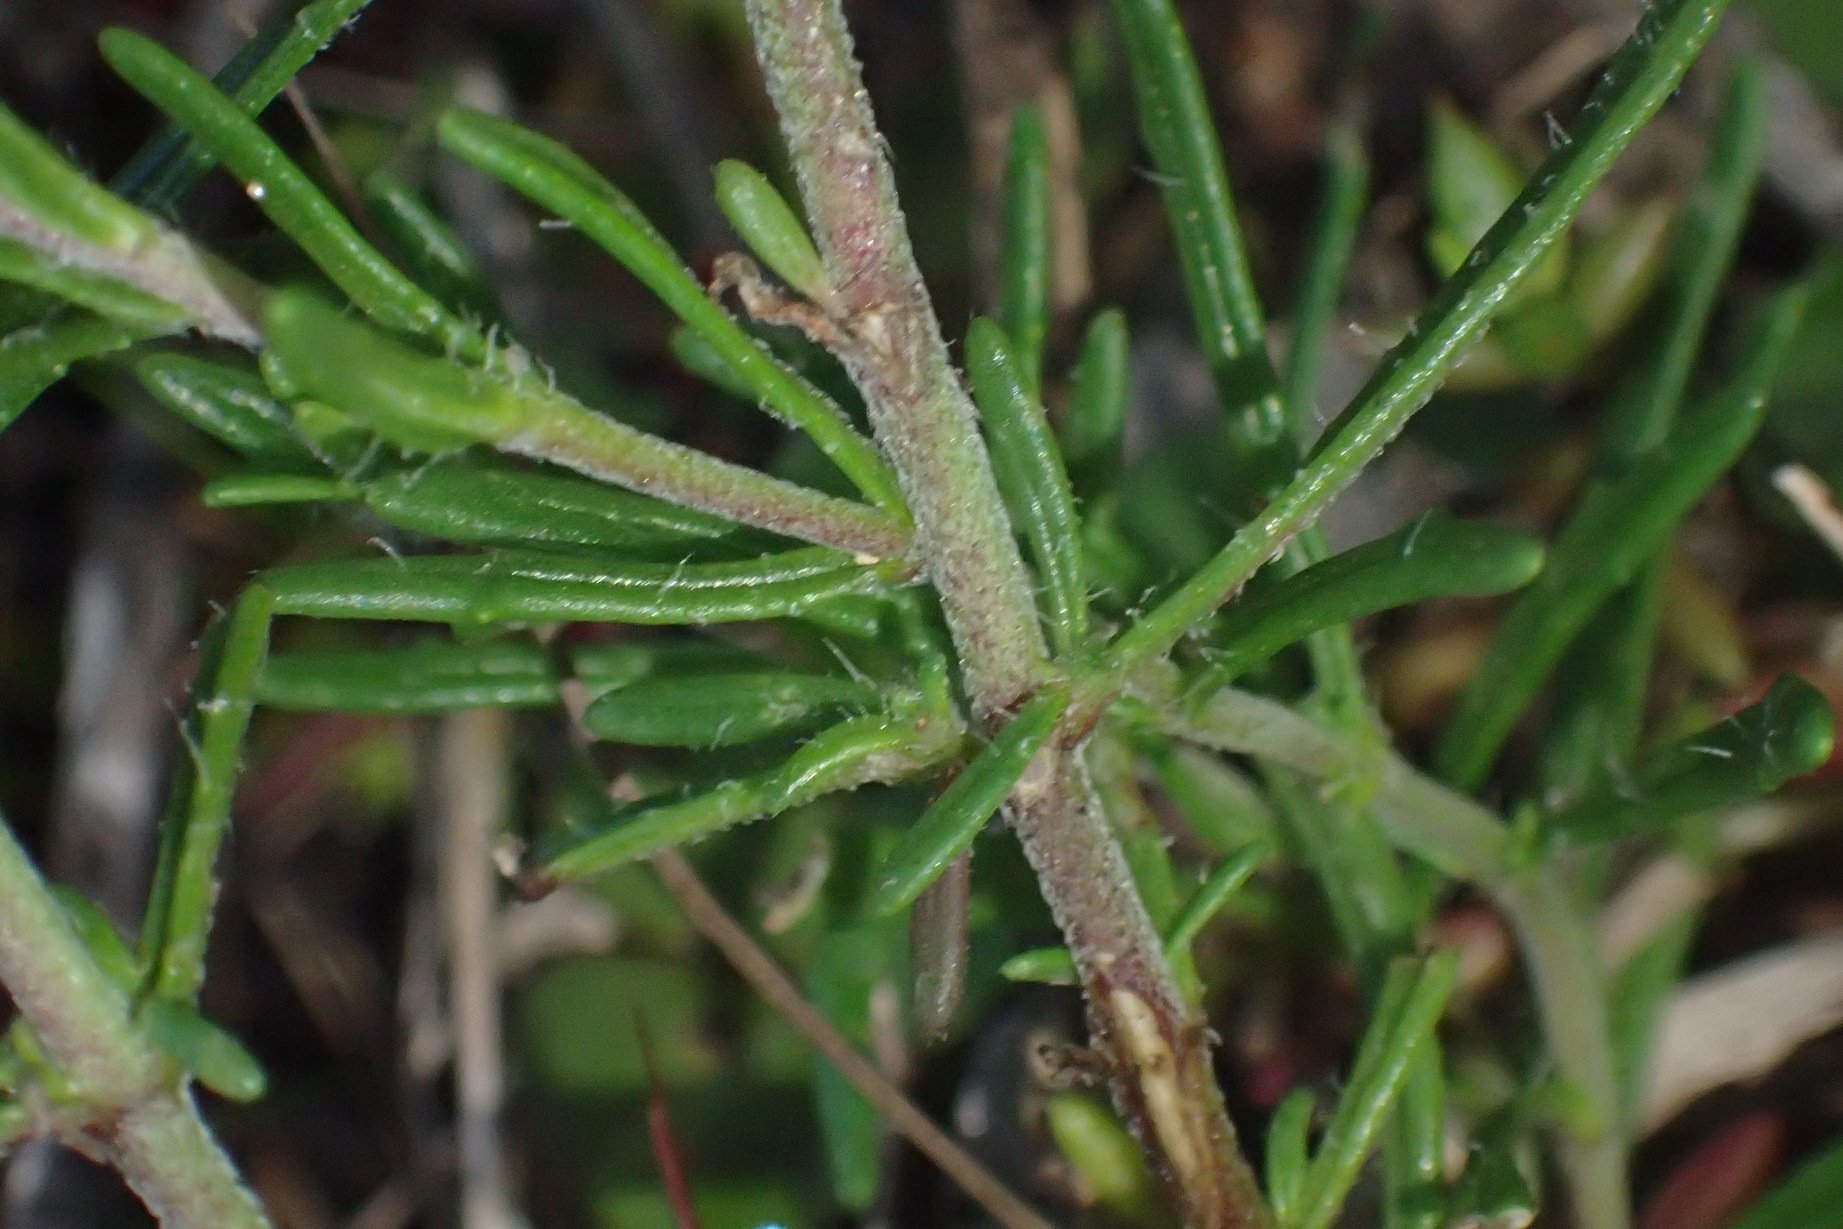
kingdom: Plantae
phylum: Tracheophyta
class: Magnoliopsida
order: Lamiales
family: Scrophulariaceae
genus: Zaluzianskya
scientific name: Zaluzianskya capensis
